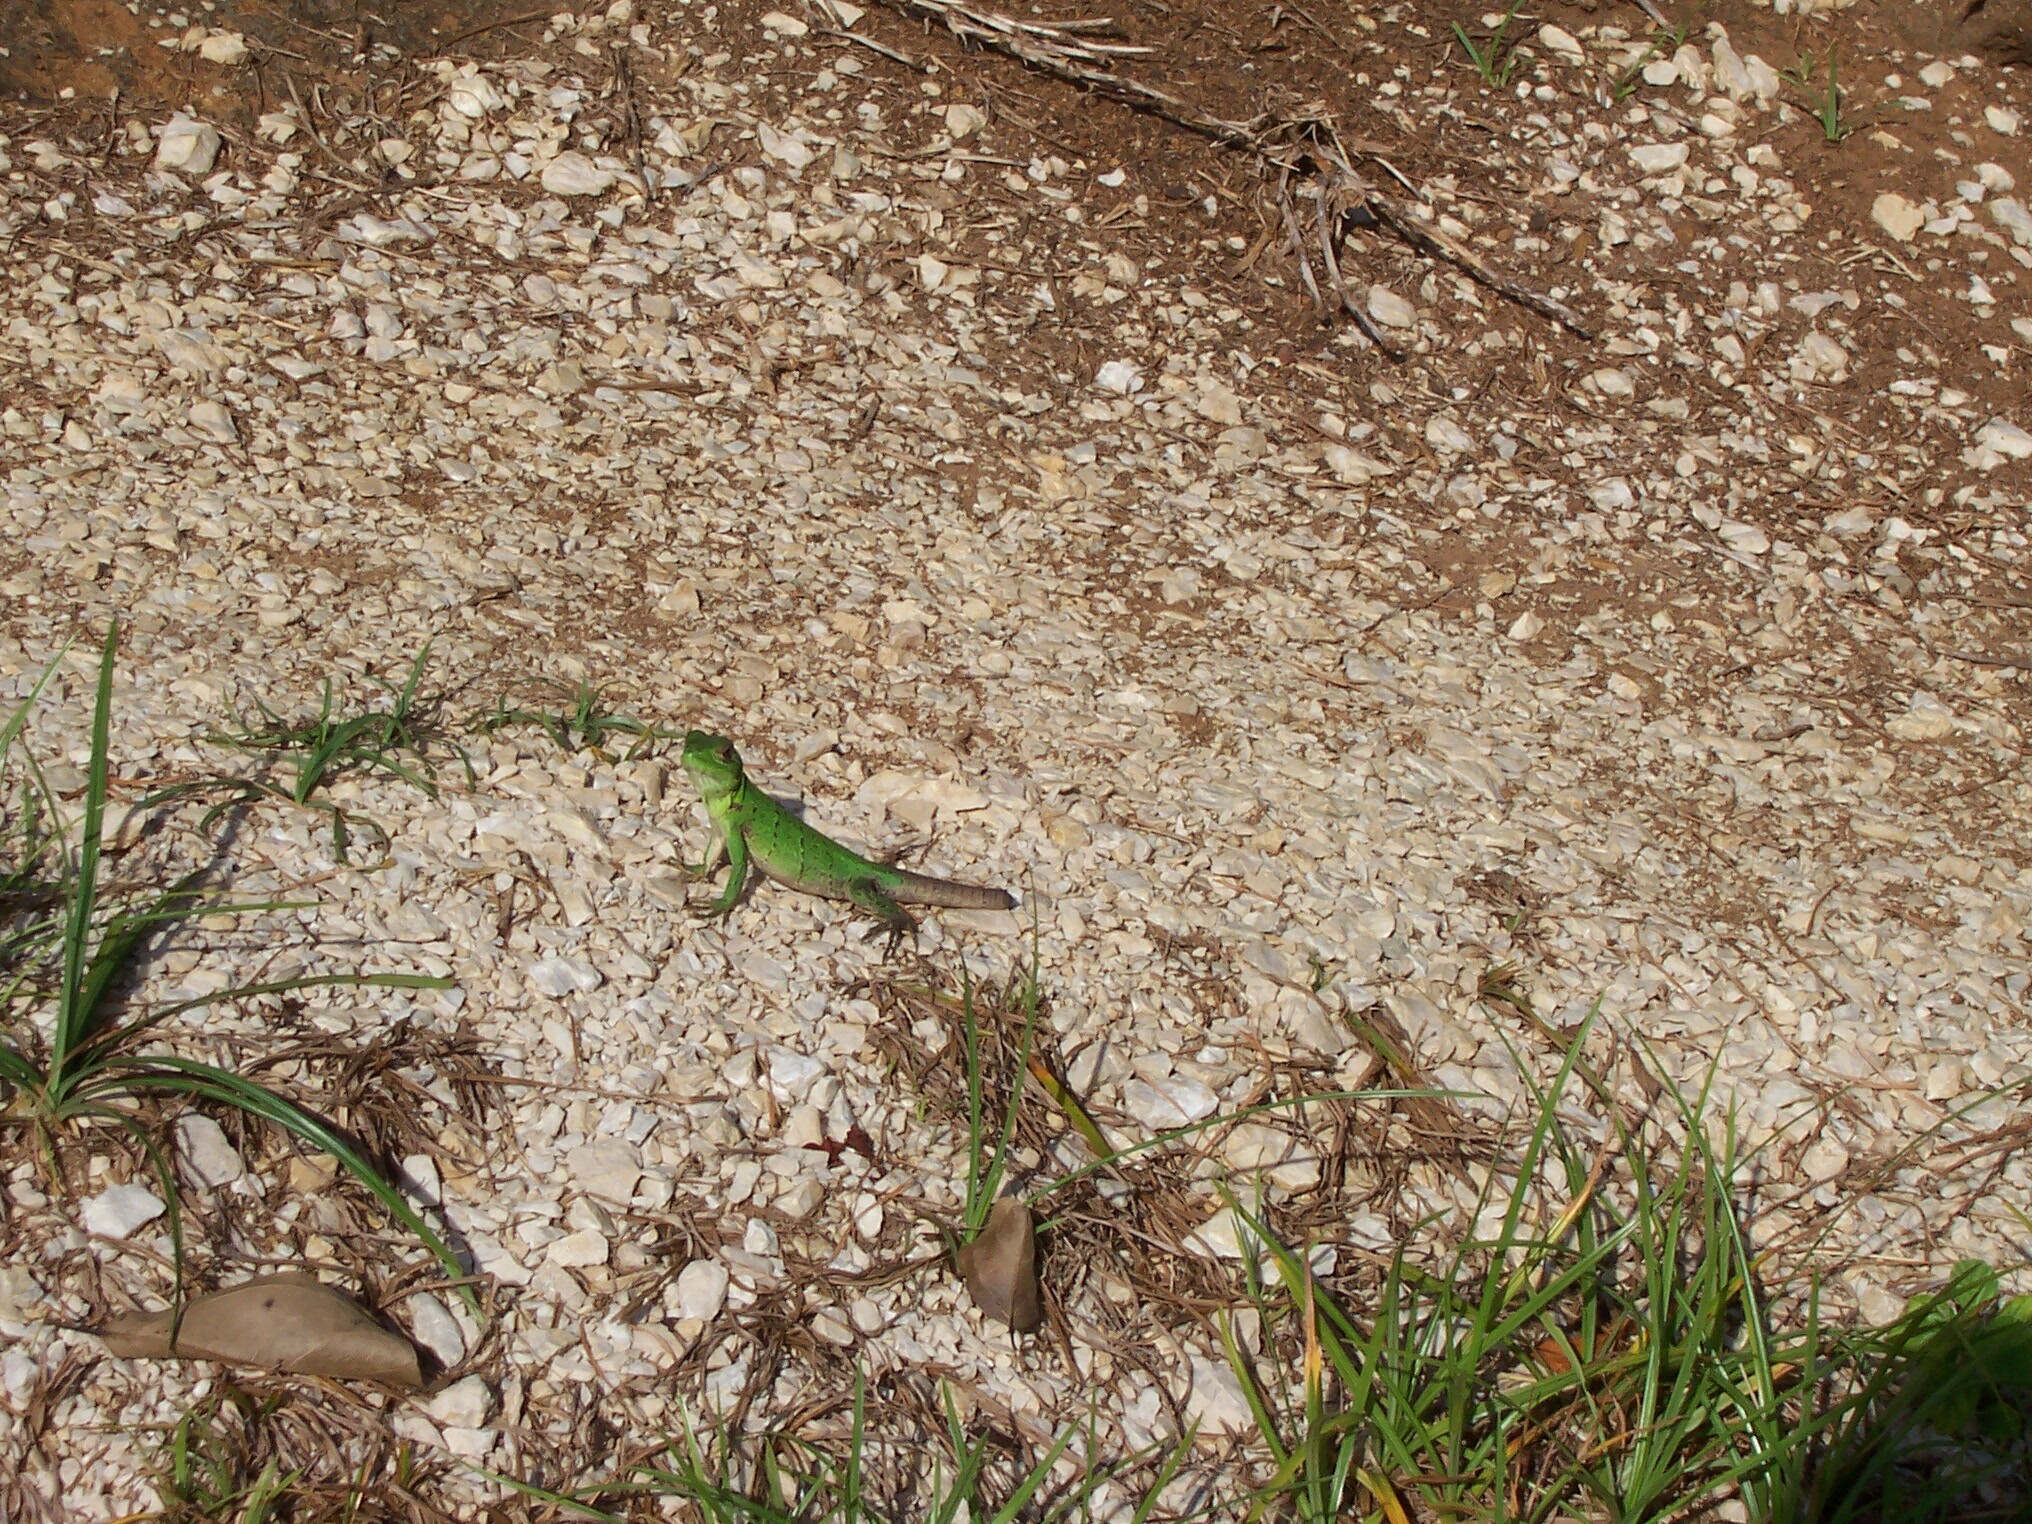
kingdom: Animalia
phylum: Chordata
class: Squamata
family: Iguanidae
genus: Ctenosaura
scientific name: Ctenosaura similis
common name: Black spiny-tailed iguana
